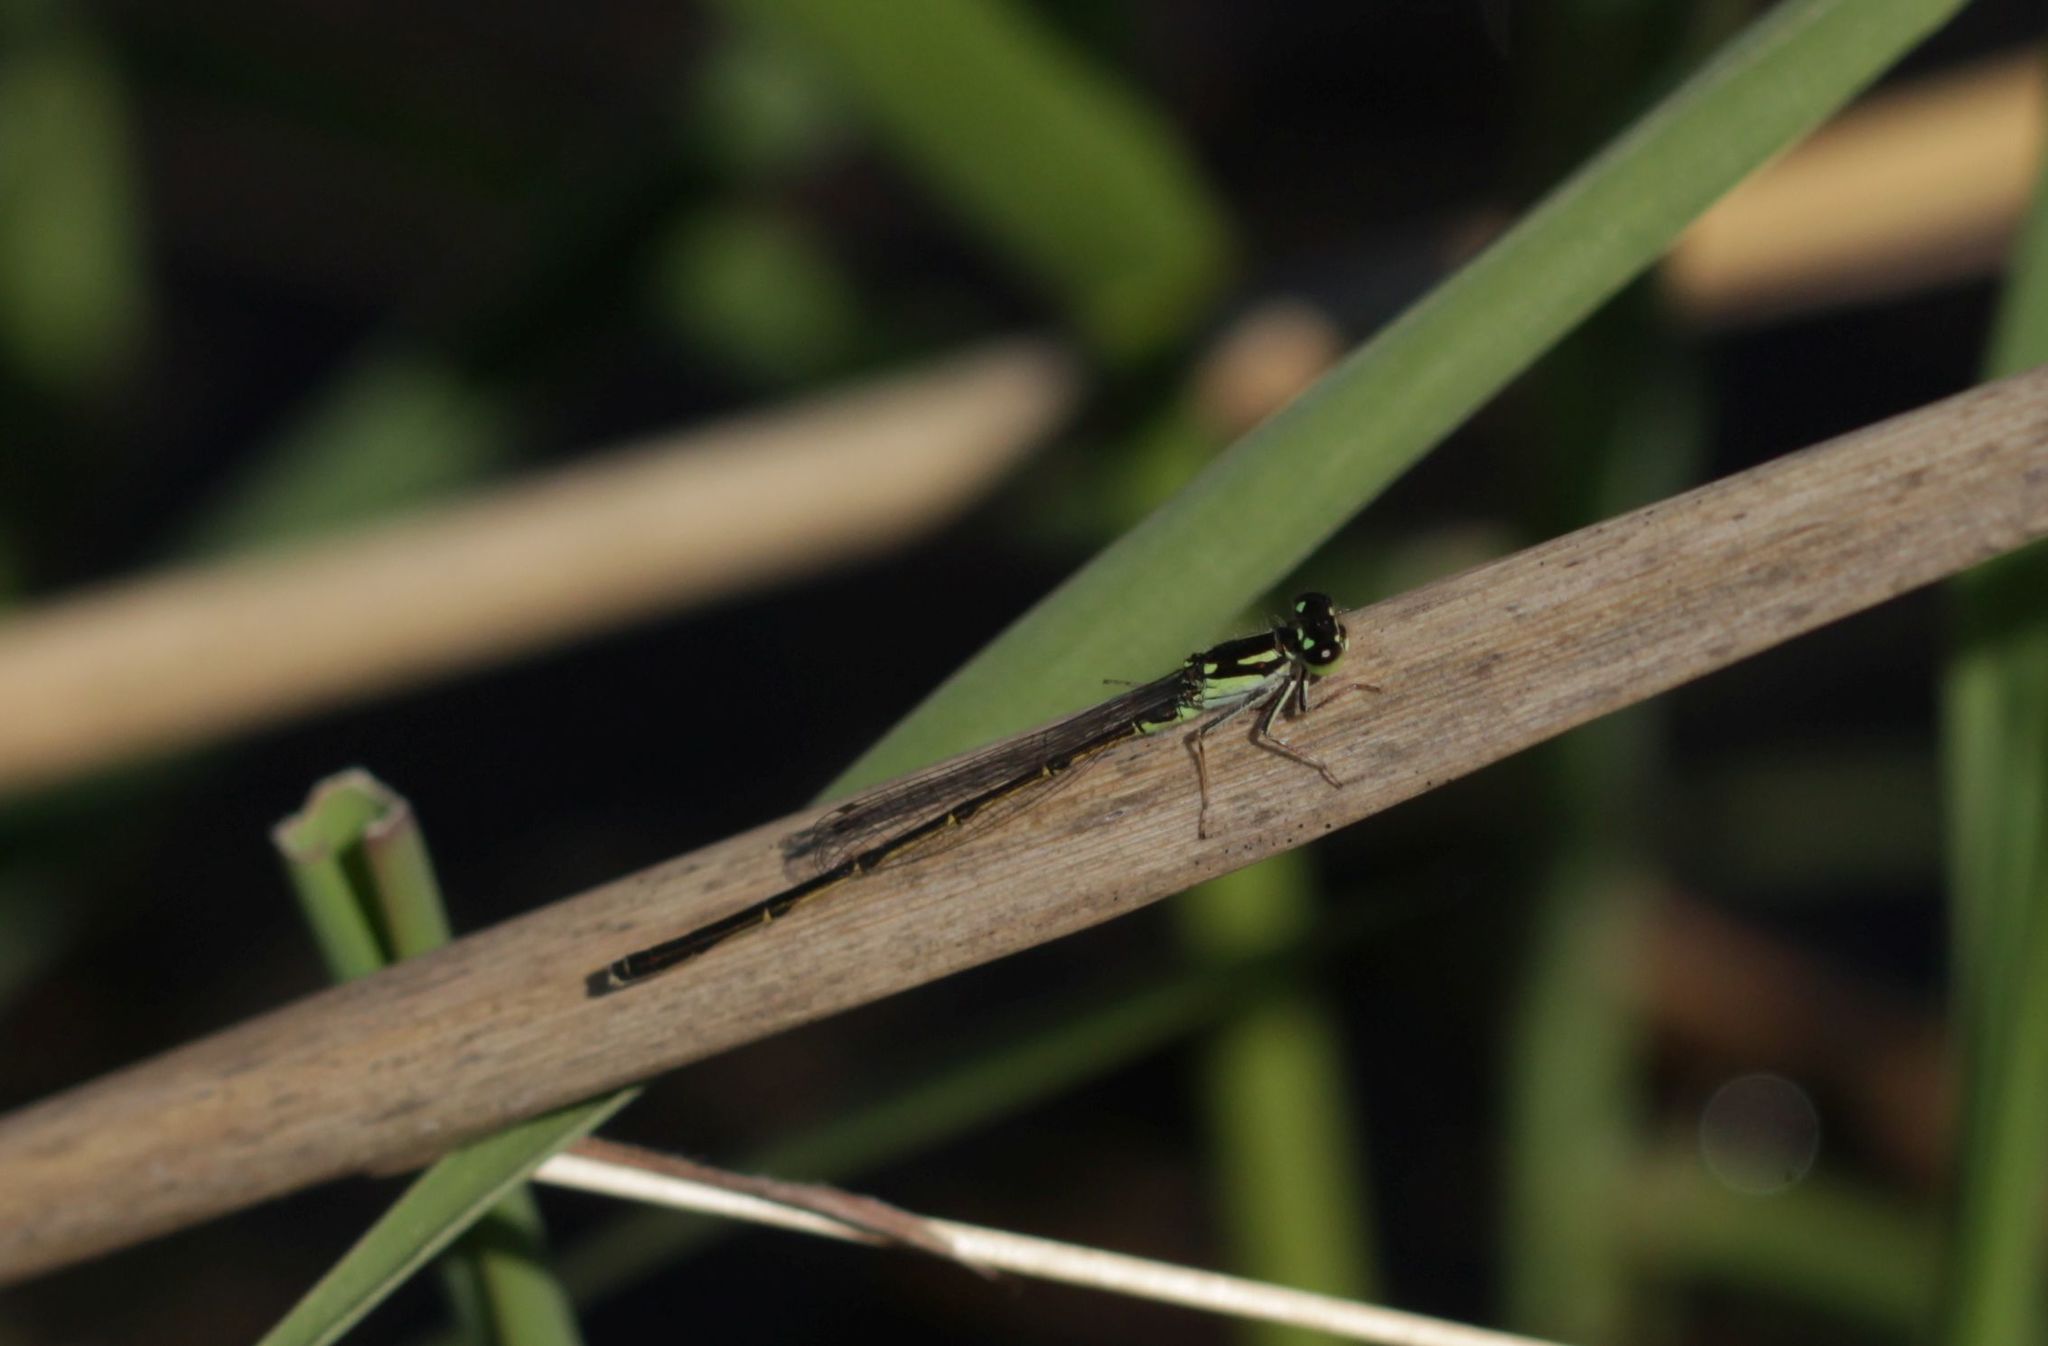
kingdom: Animalia
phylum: Arthropoda
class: Insecta
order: Odonata
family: Coenagrionidae
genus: Ischnura
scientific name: Ischnura posita
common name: Fragile forktail
